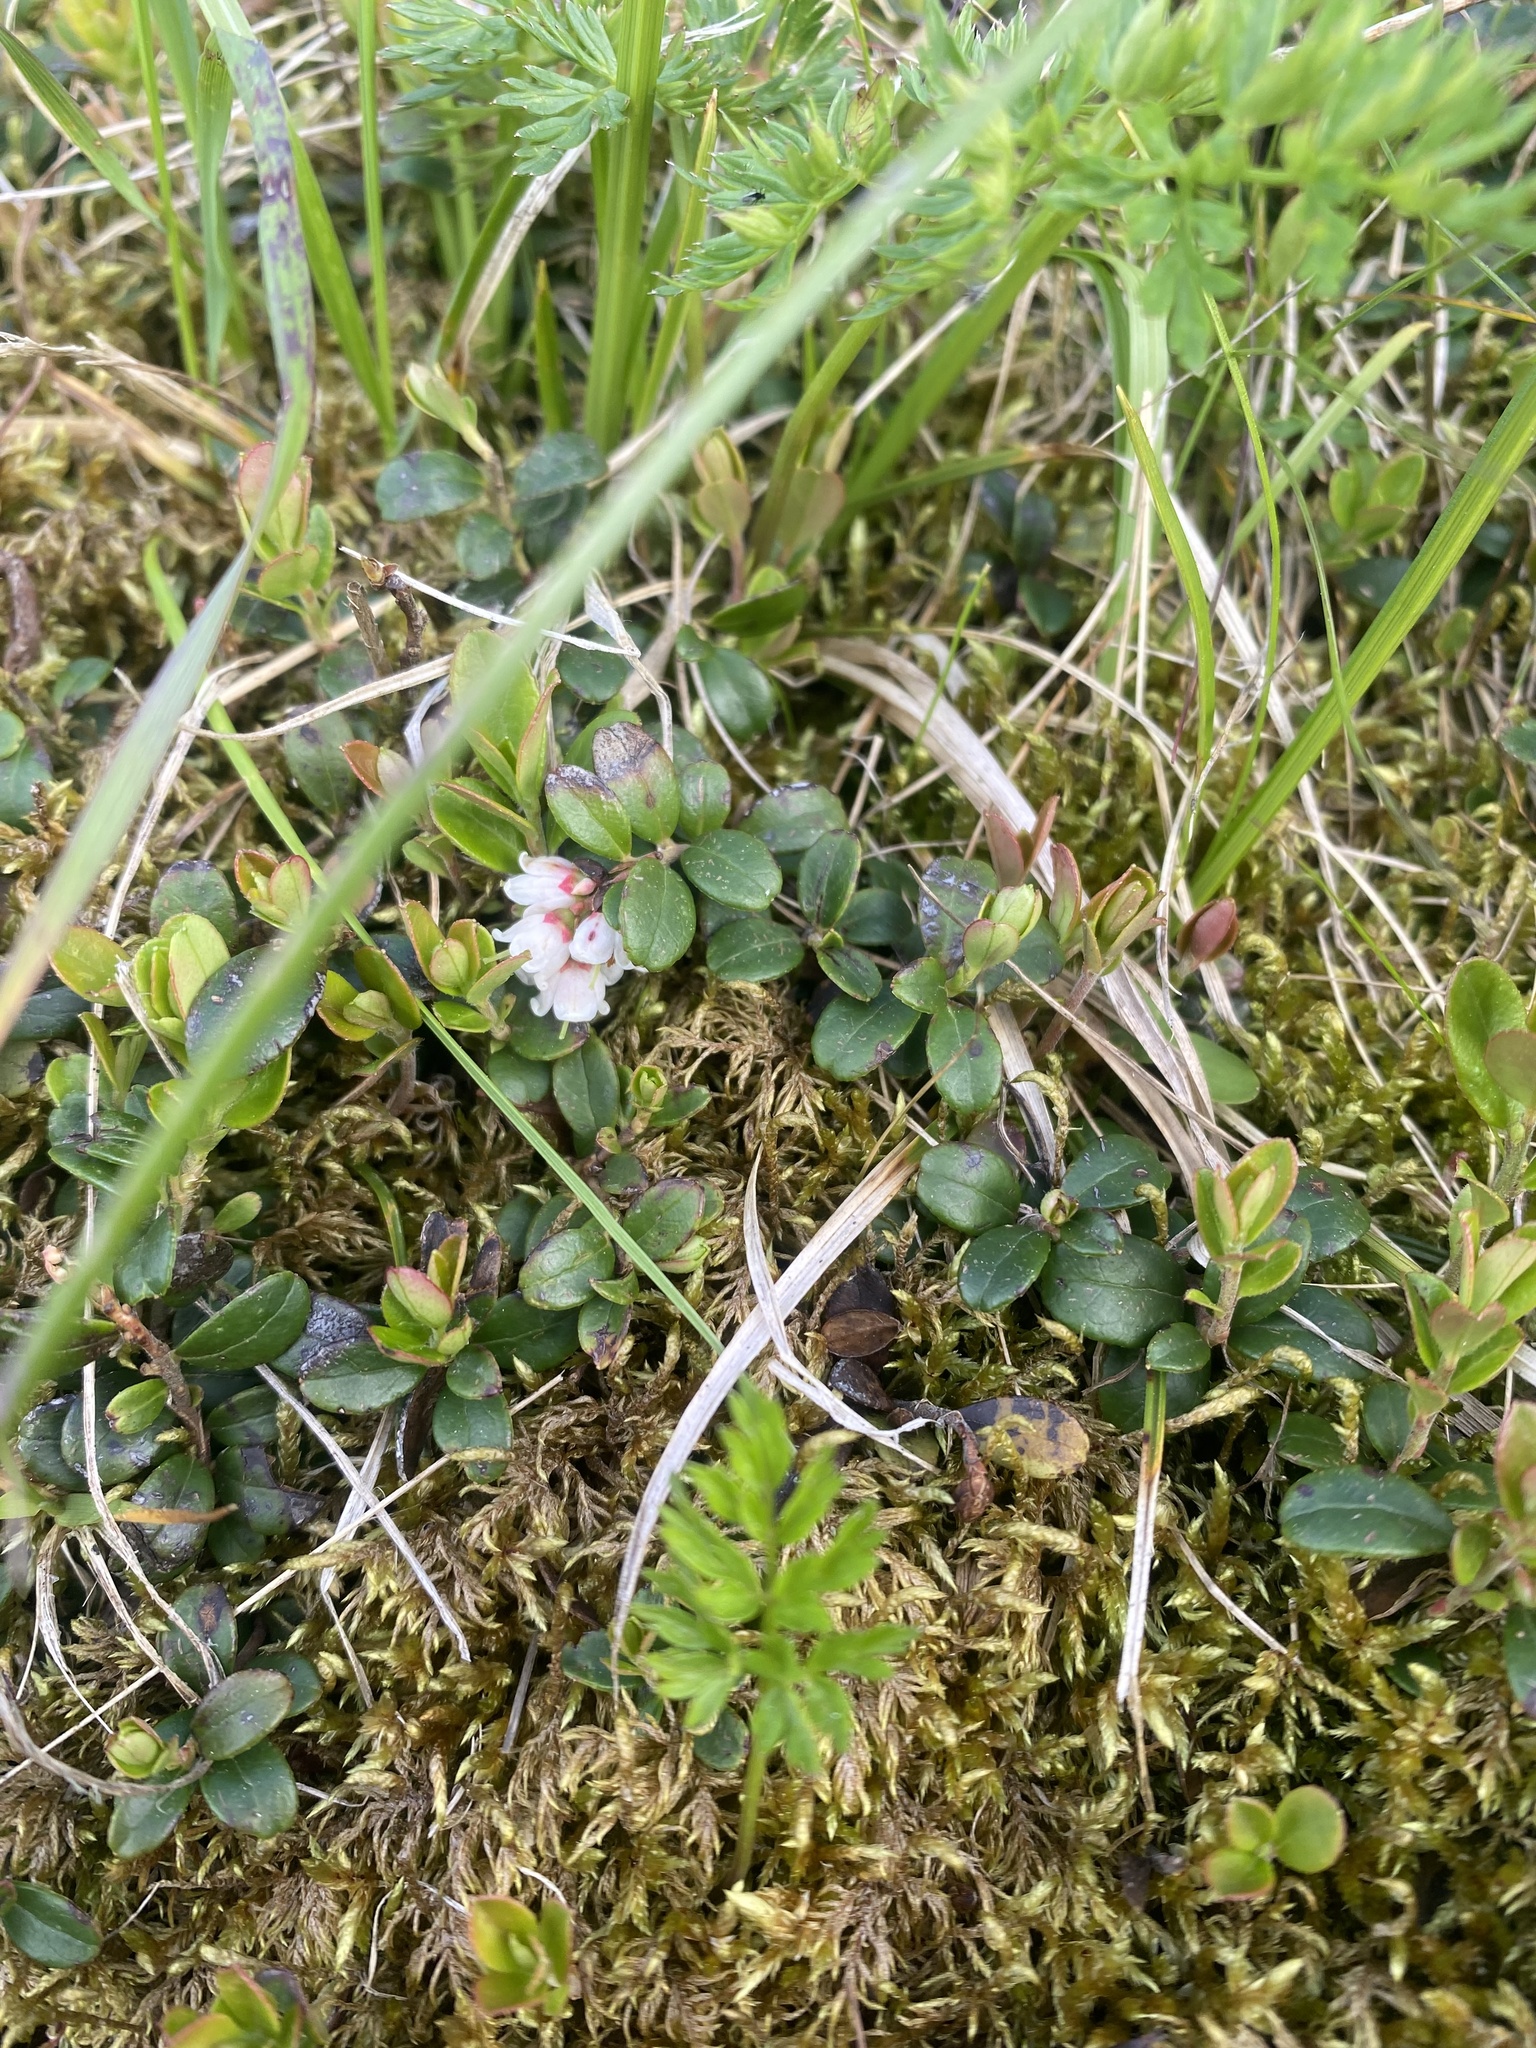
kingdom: Plantae
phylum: Tracheophyta
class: Magnoliopsida
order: Ericales
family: Ericaceae
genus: Vaccinium
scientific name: Vaccinium vitis-idaea
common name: Cowberry
